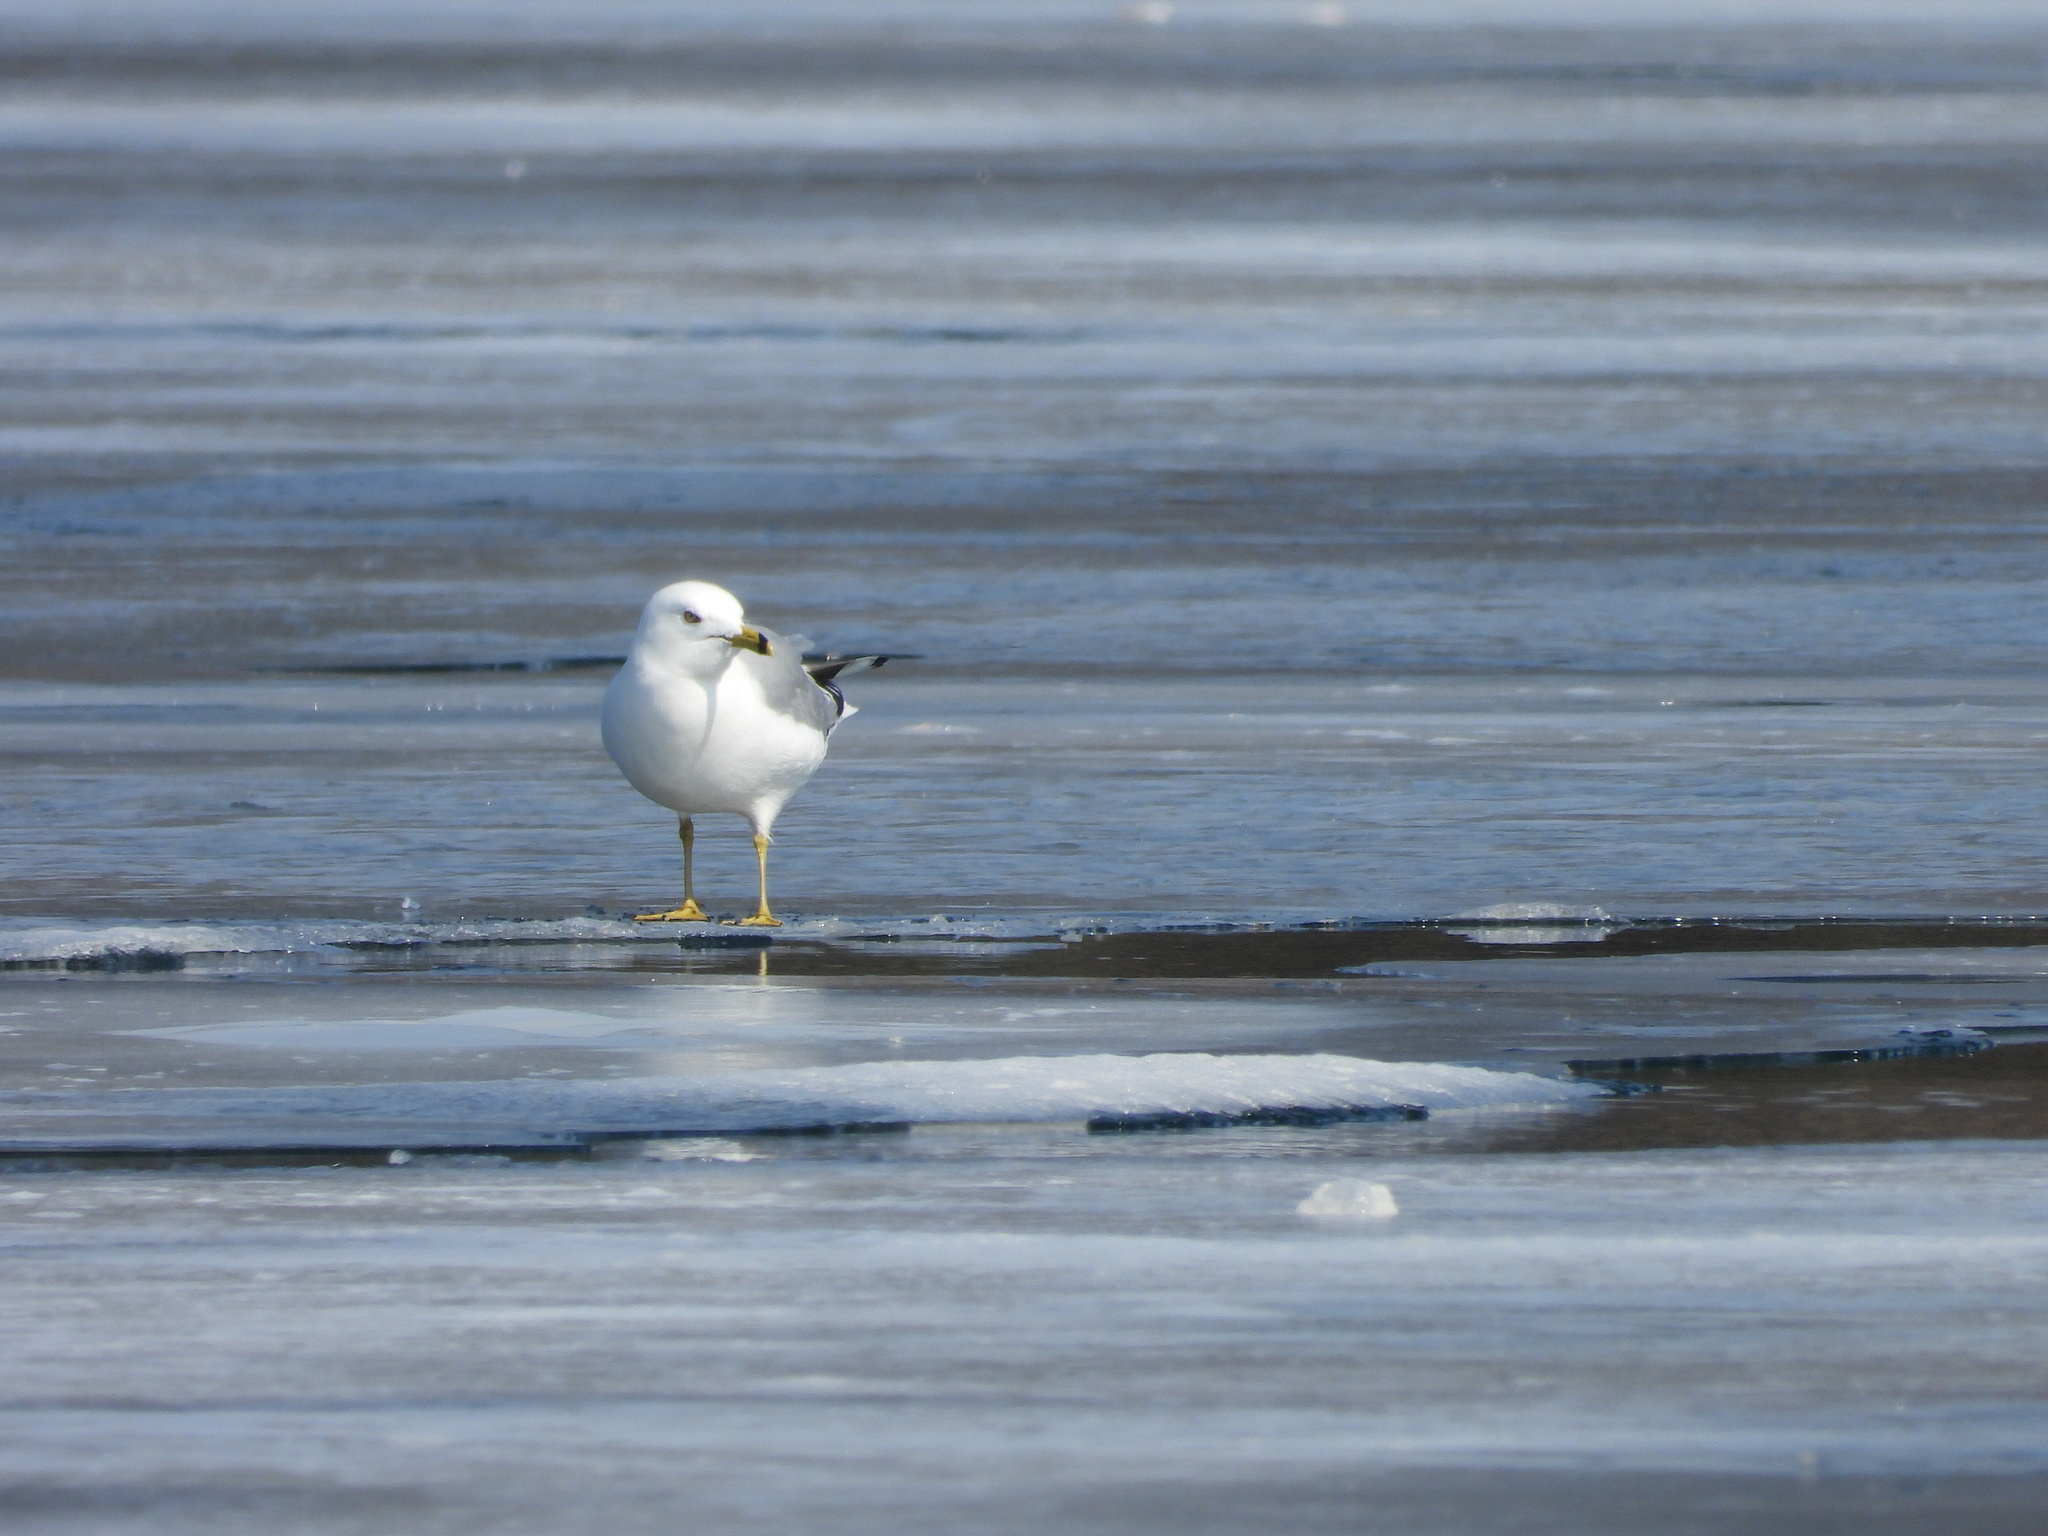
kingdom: Animalia
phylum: Chordata
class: Aves
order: Charadriiformes
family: Laridae
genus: Larus
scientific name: Larus delawarensis
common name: Ring-billed gull
